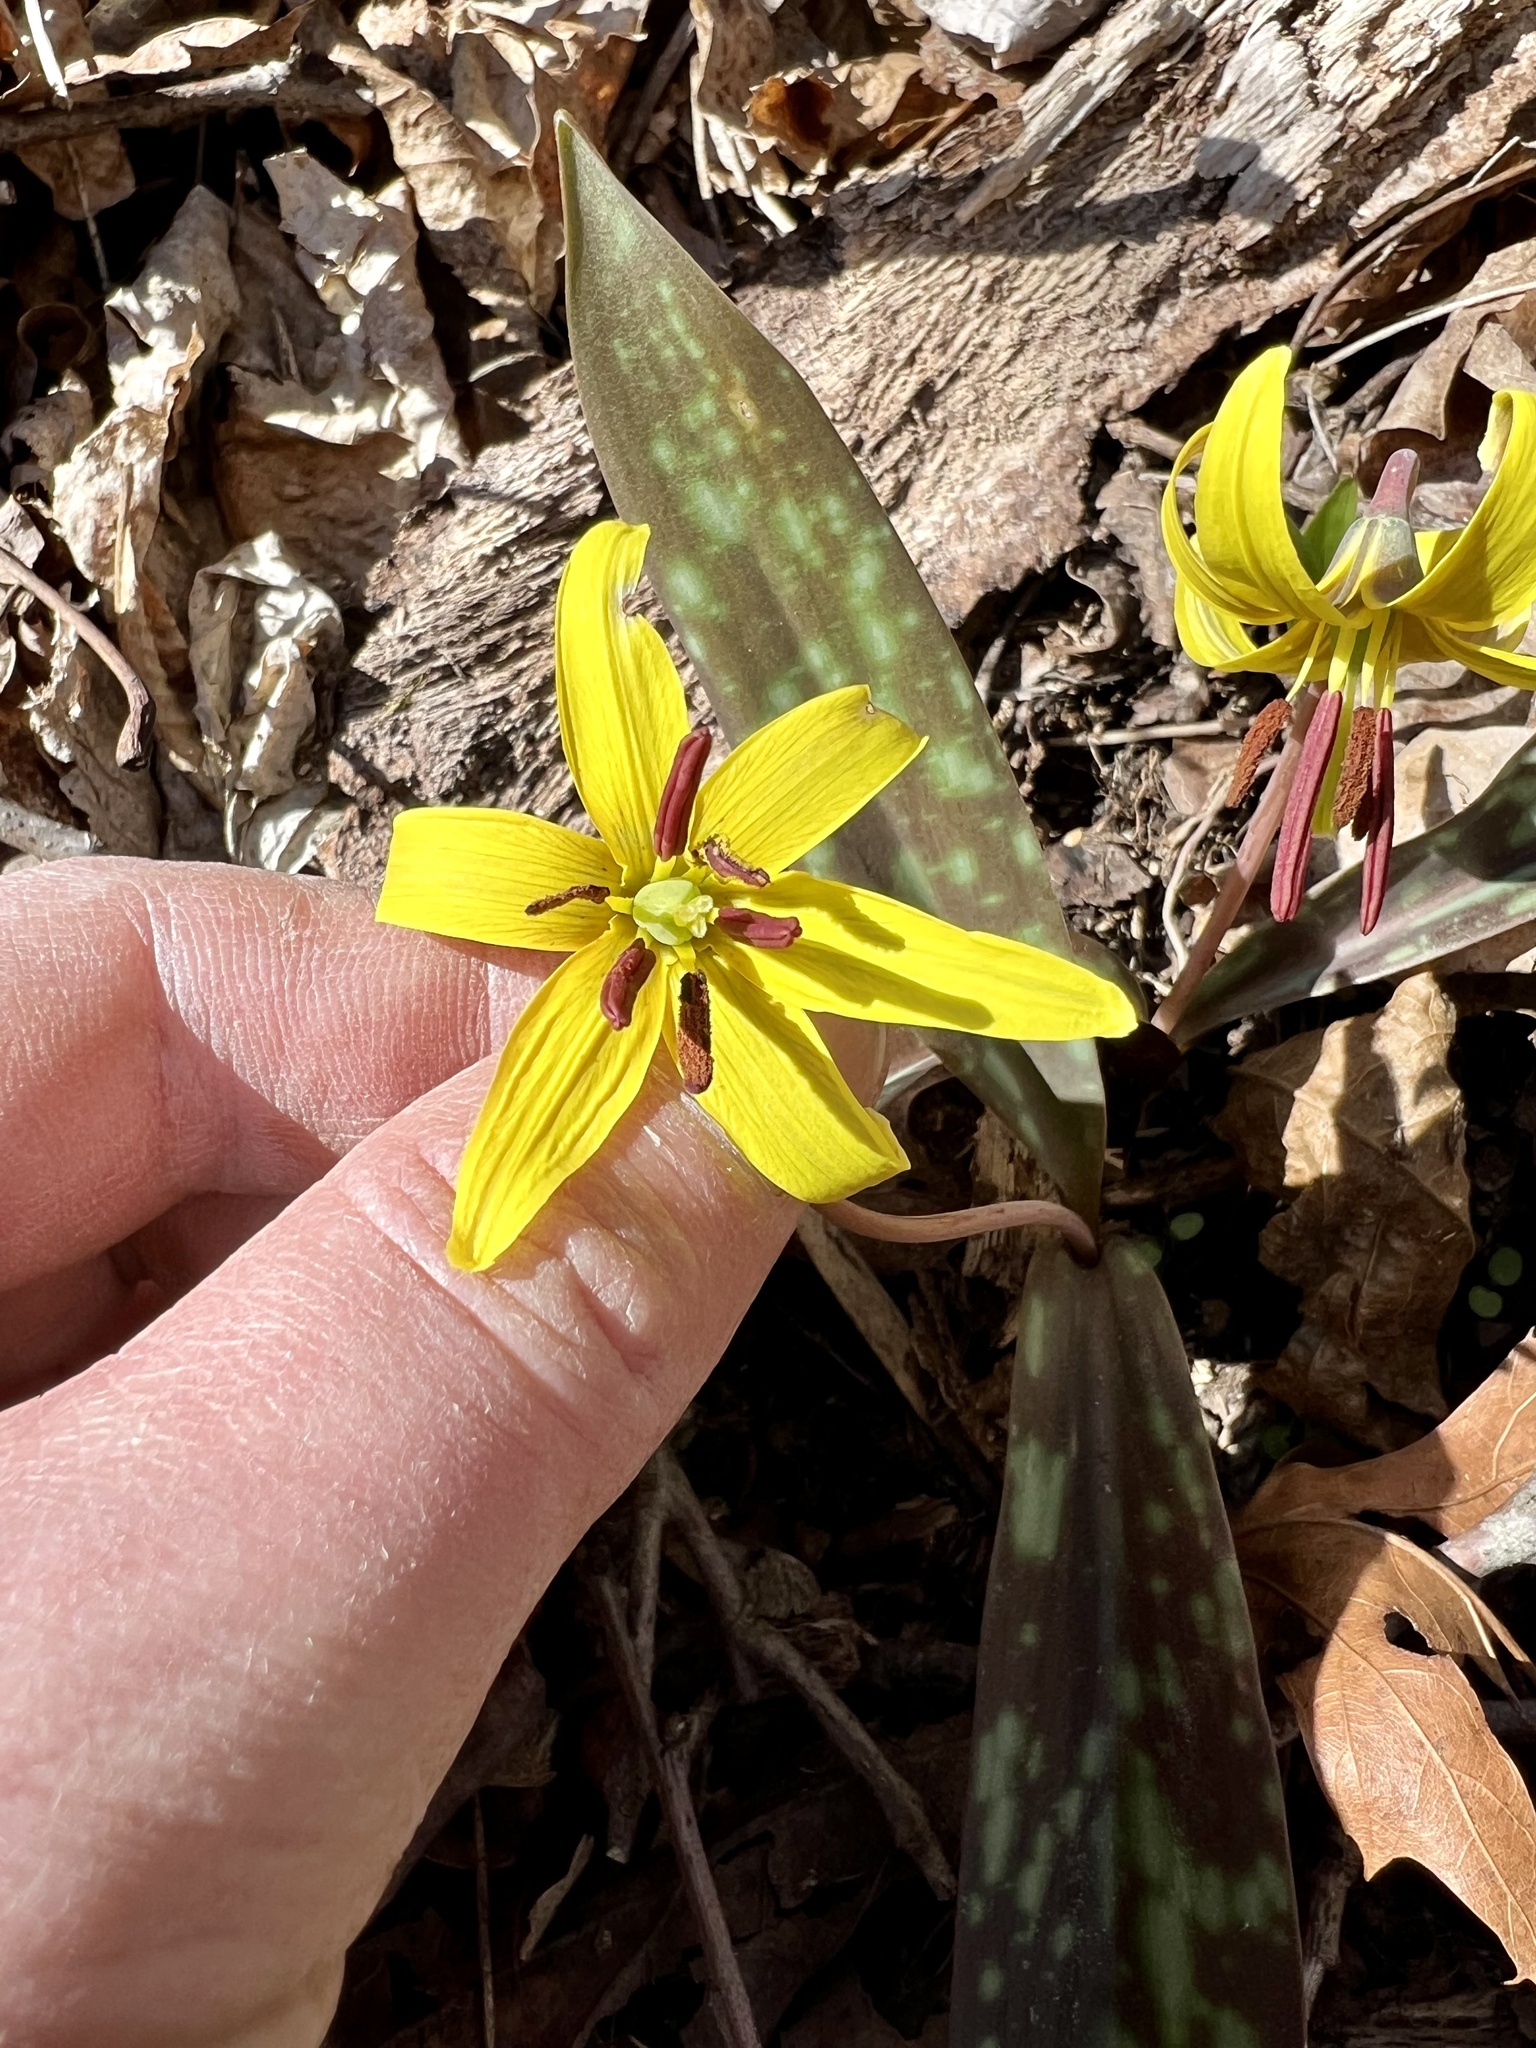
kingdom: Plantae
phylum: Tracheophyta
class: Liliopsida
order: Liliales
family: Liliaceae
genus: Erythronium
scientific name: Erythronium americanum
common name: Yellow adder's-tongue
